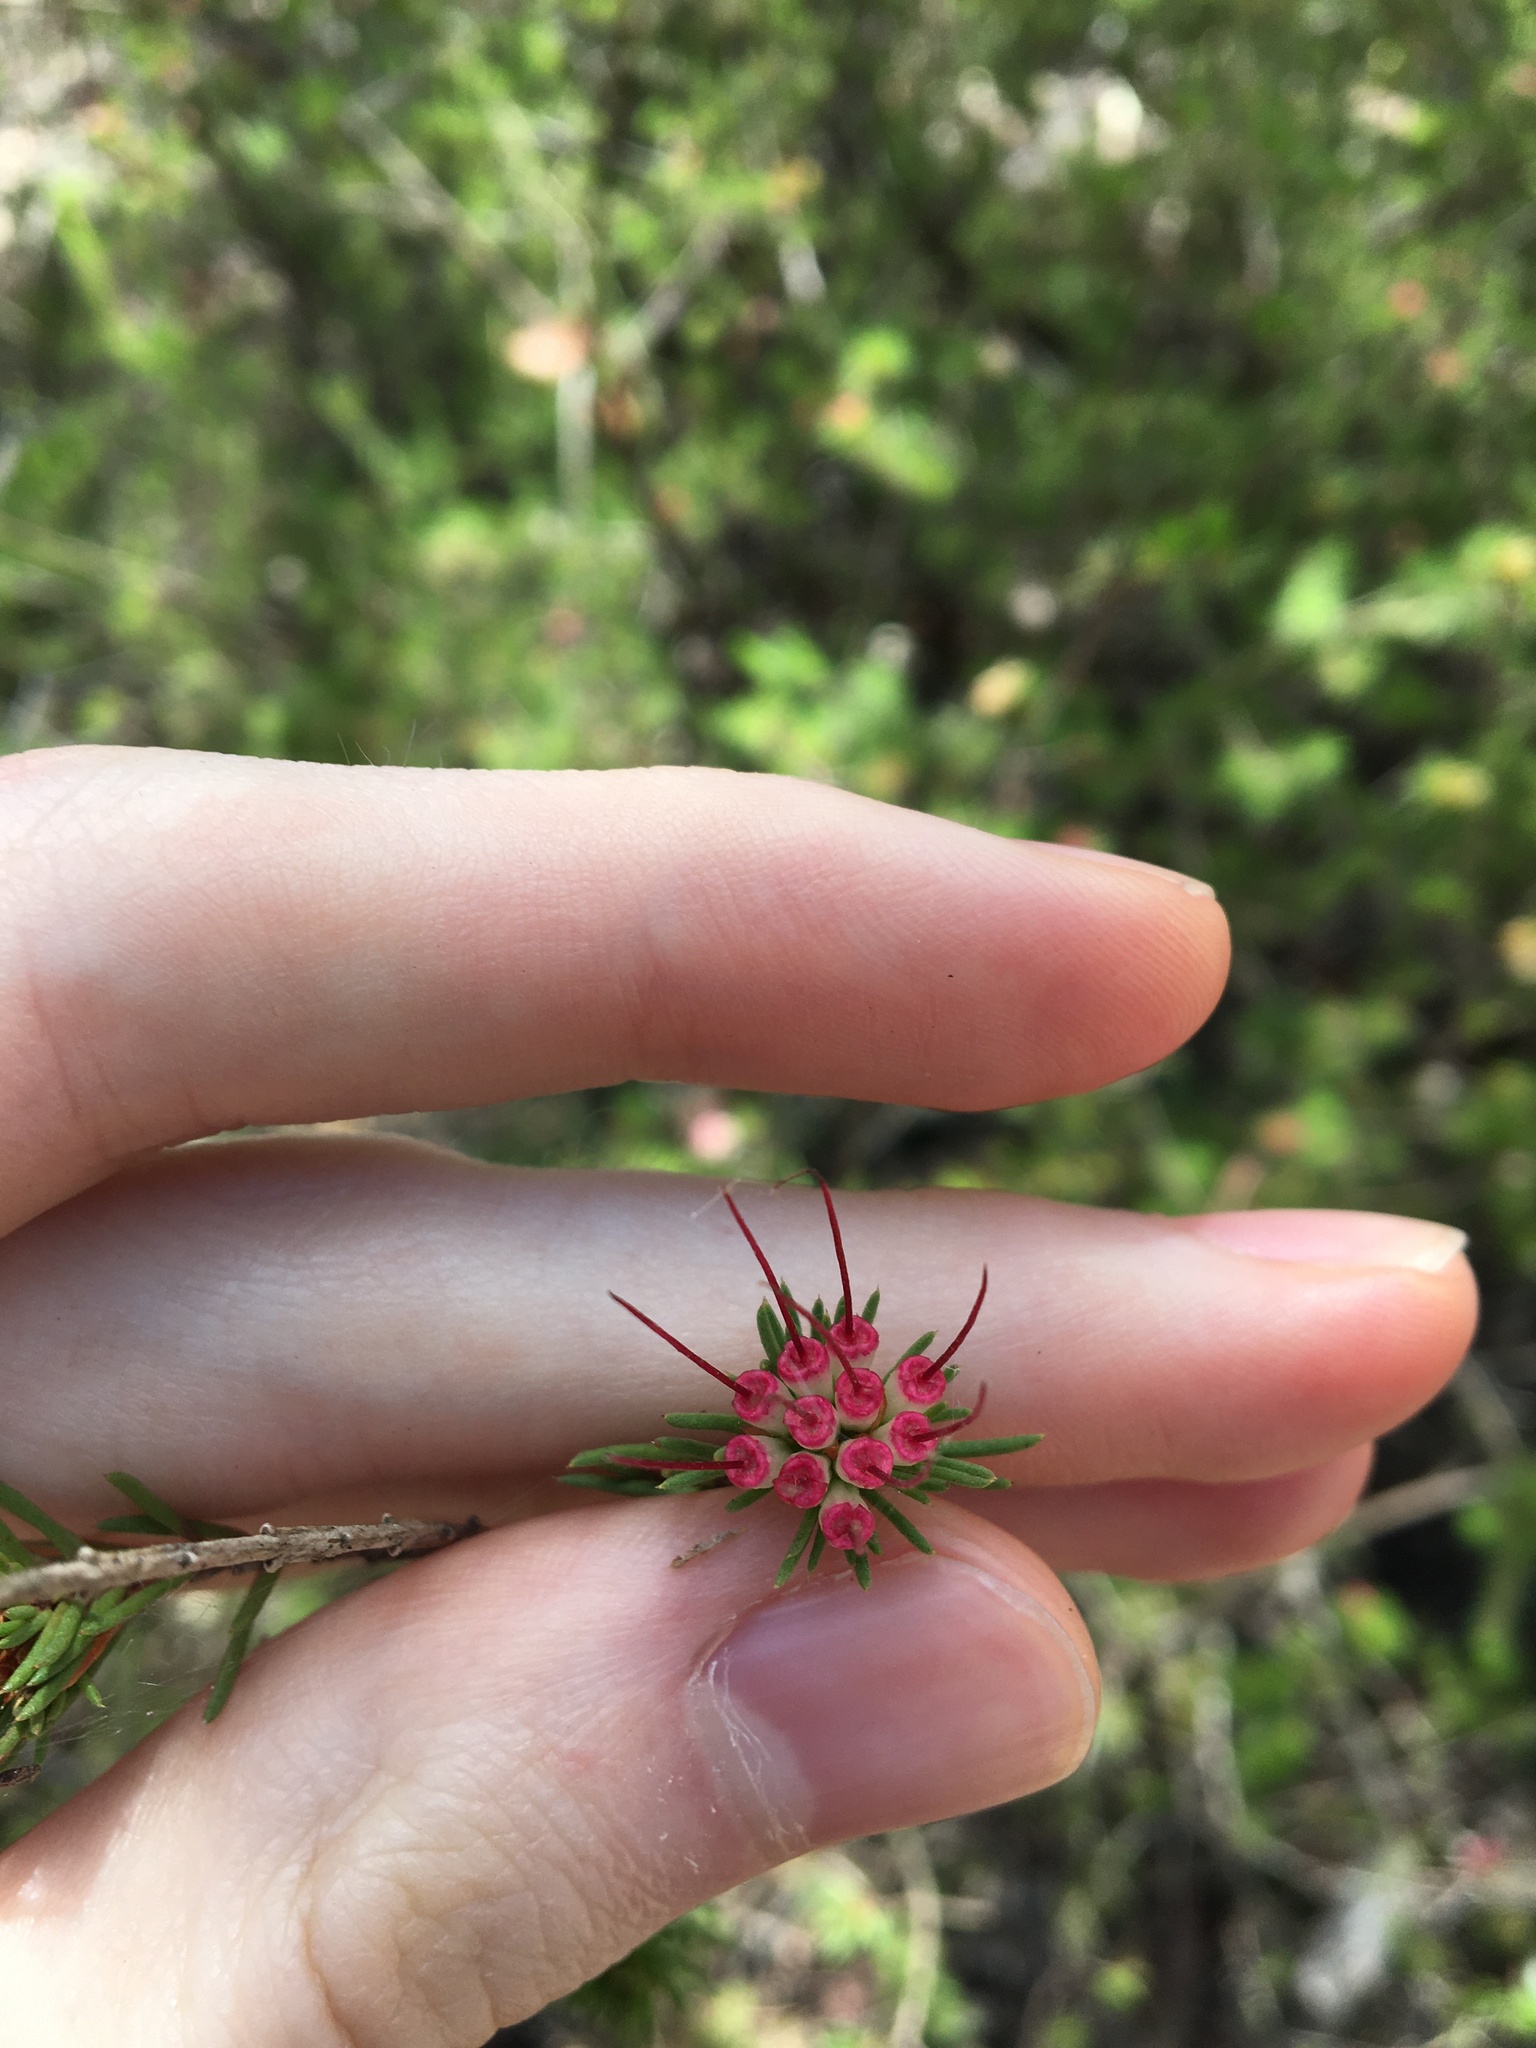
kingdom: Plantae
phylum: Tracheophyta
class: Magnoliopsida
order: Myrtales
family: Myrtaceae
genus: Darwinia
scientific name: Darwinia fascicularis
